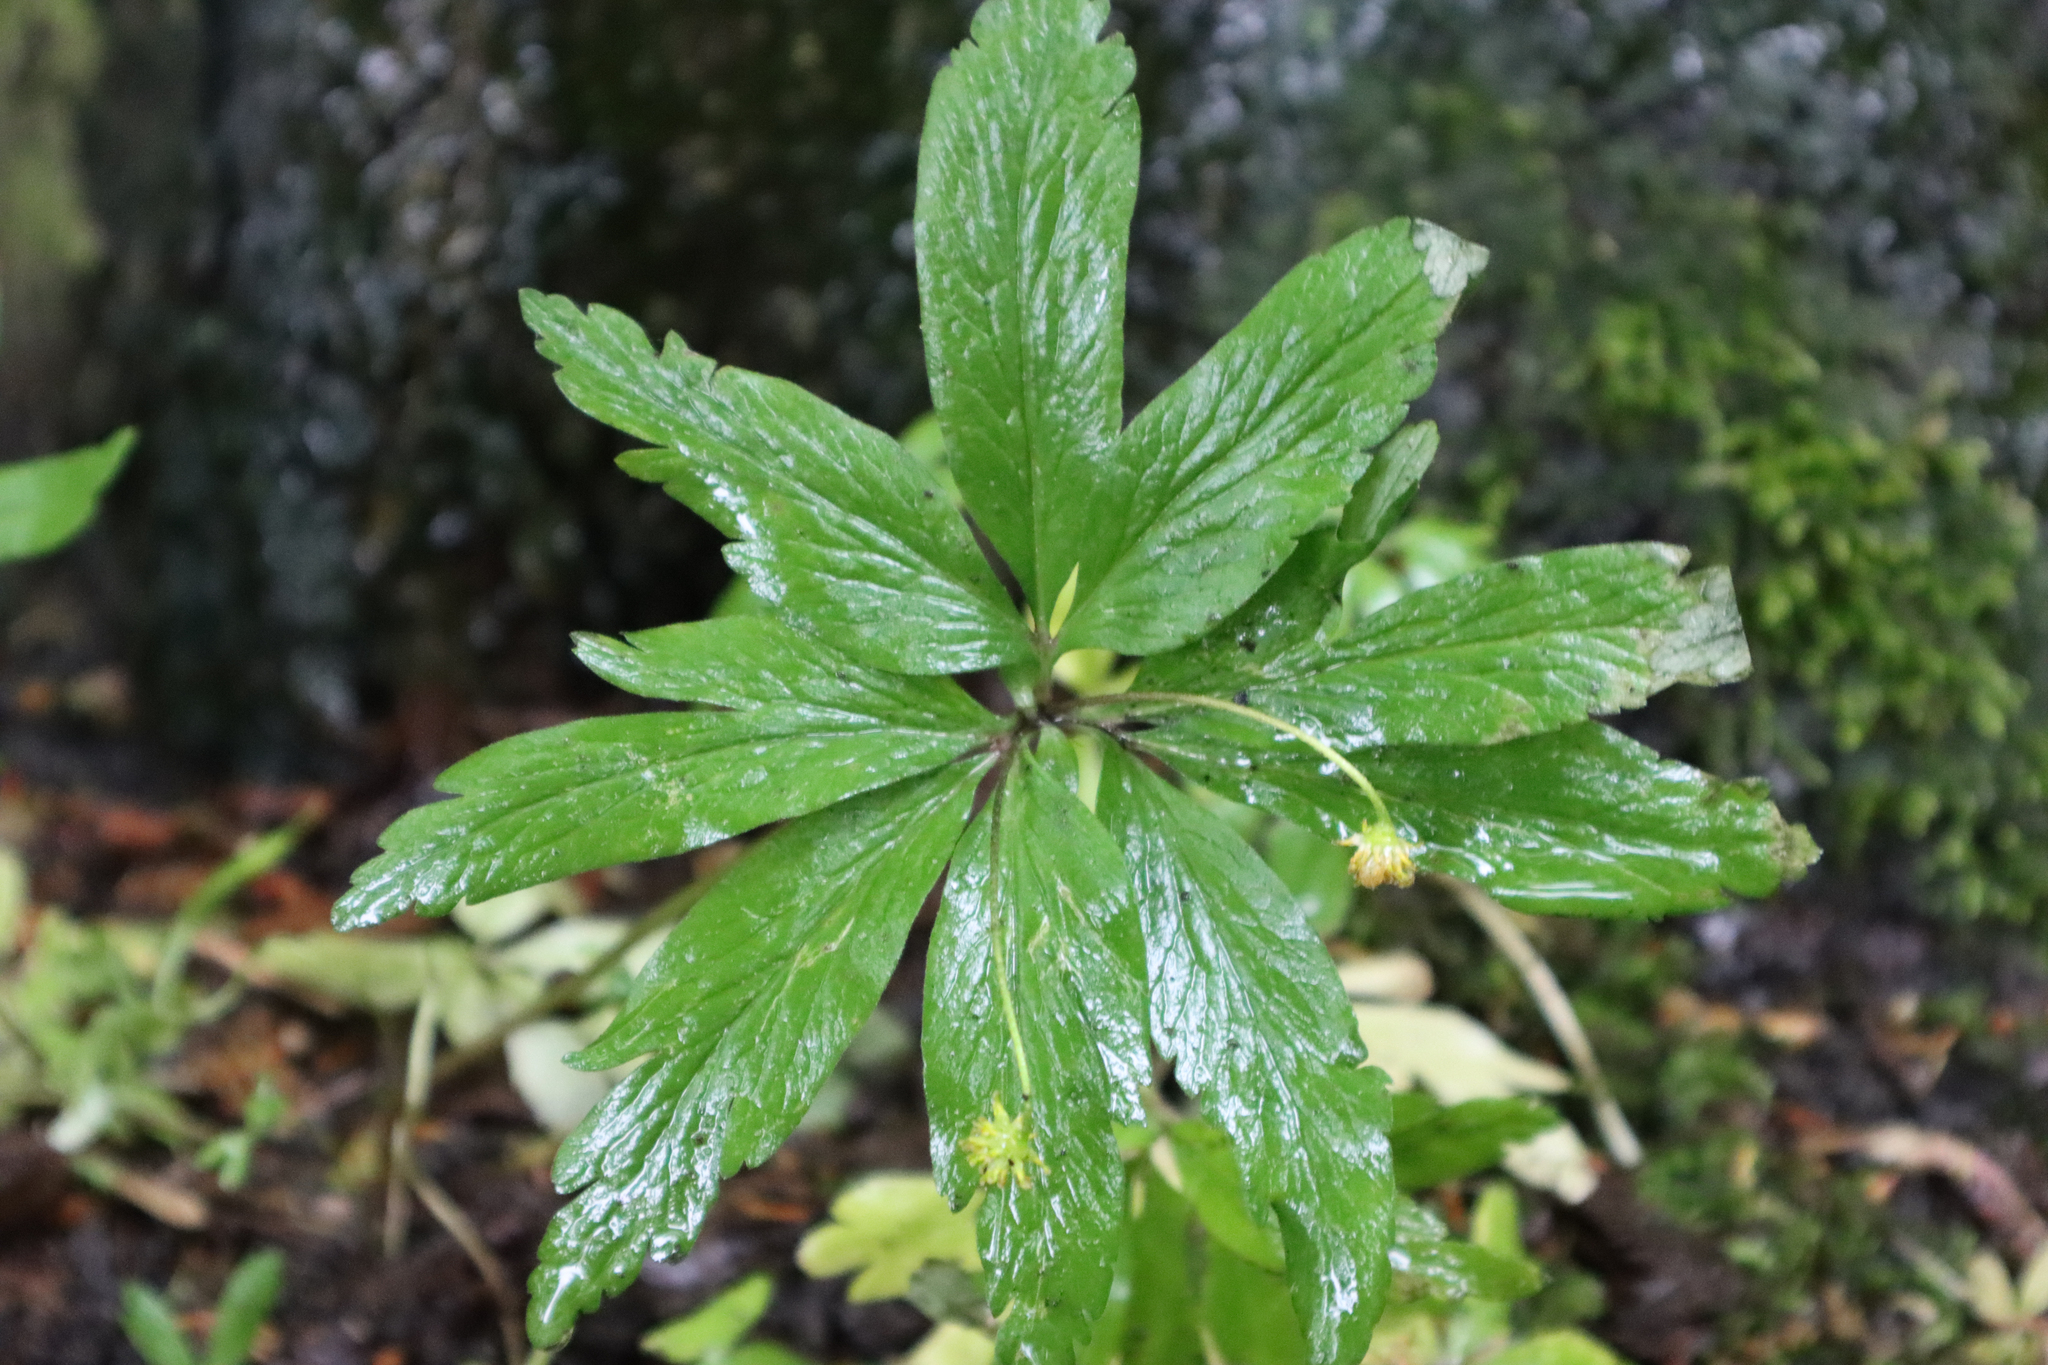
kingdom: Plantae
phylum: Tracheophyta
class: Magnoliopsida
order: Ranunculales
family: Ranunculaceae
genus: Anemone
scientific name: Anemone ranunculoides
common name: Yellow anemone
